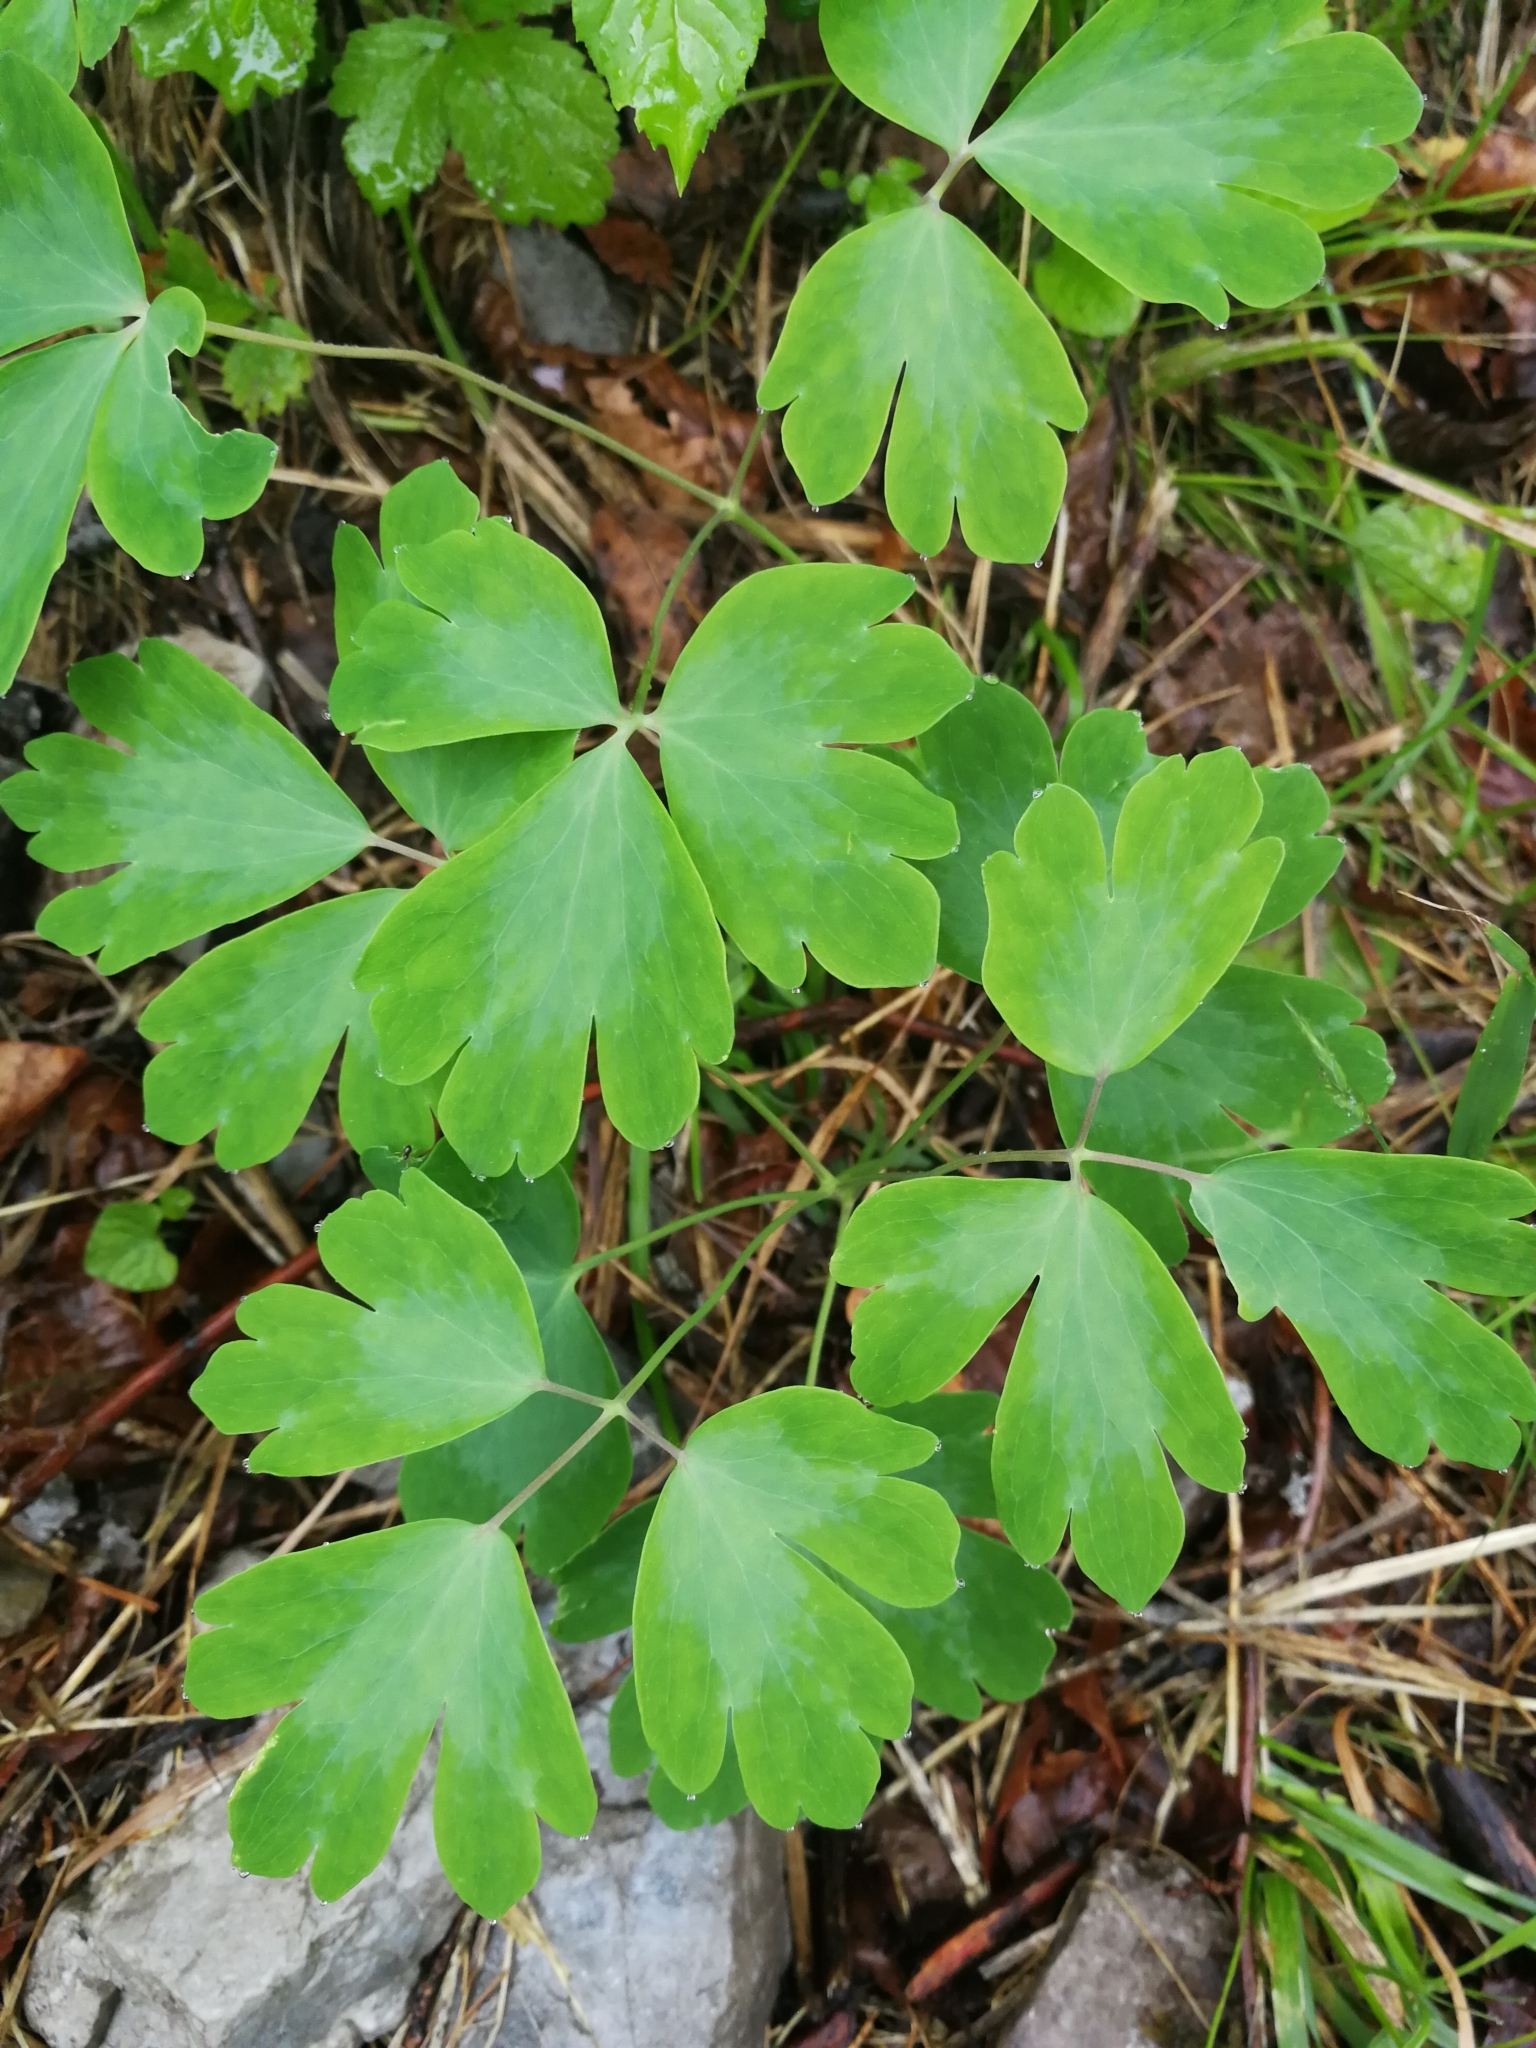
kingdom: Plantae
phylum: Tracheophyta
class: Magnoliopsida
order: Ranunculales
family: Ranunculaceae
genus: Aquilegia
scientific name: Aquilegia vulgaris
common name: Columbine
